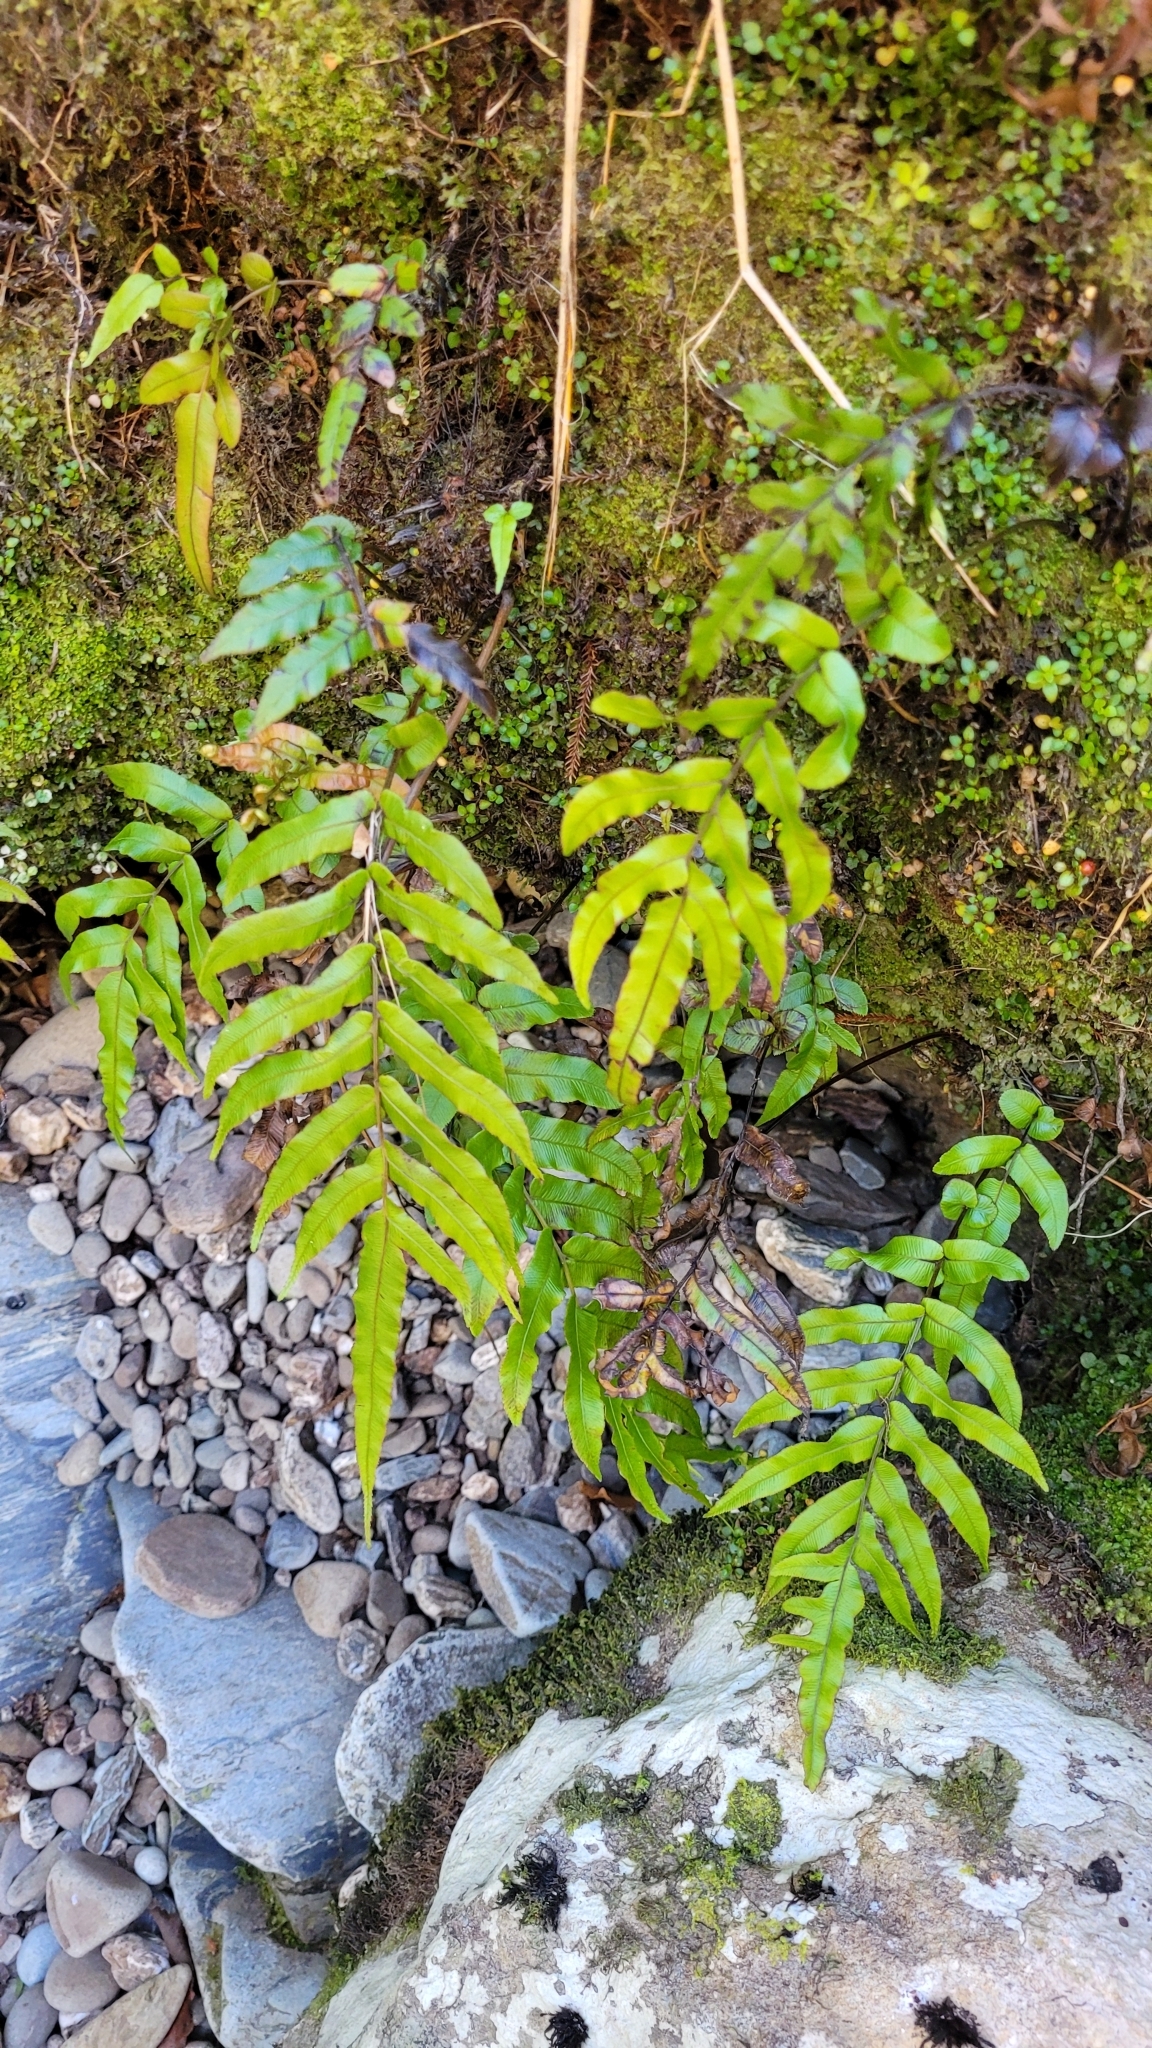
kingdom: Plantae
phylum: Tracheophyta
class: Polypodiopsida
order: Polypodiales
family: Blechnaceae
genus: Parablechnum
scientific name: Parablechnum novae-zelandiae
